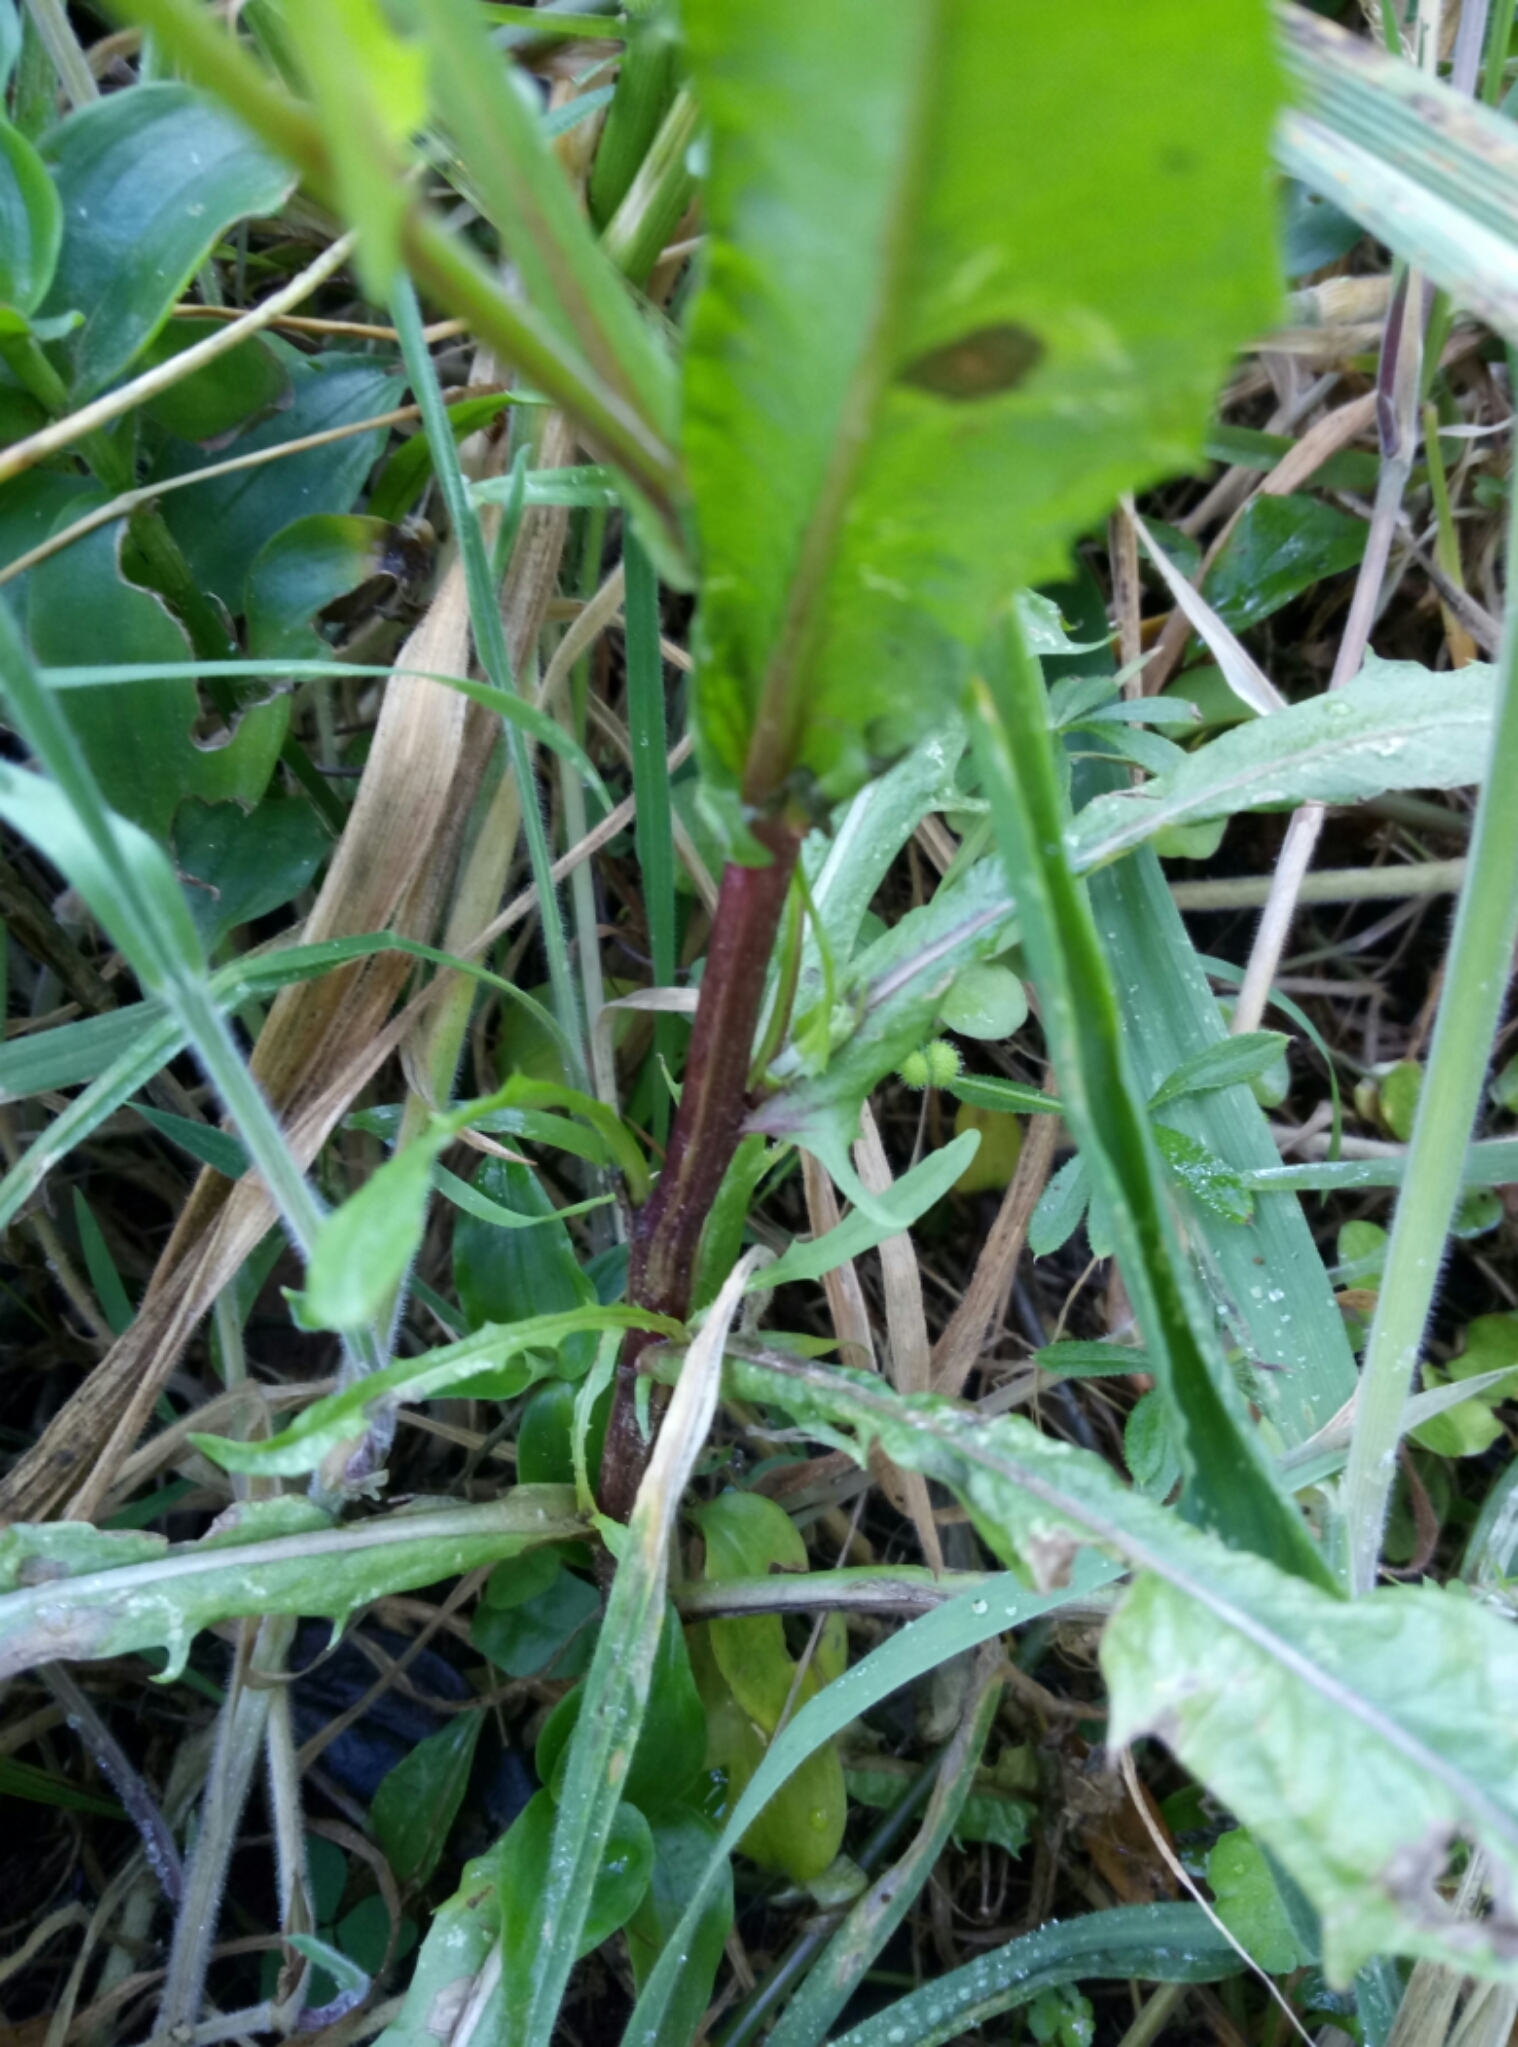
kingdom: Plantae
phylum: Tracheophyta
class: Magnoliopsida
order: Asterales
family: Asteraceae
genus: Crepis
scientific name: Crepis capillaris
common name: Smooth hawksbeard
